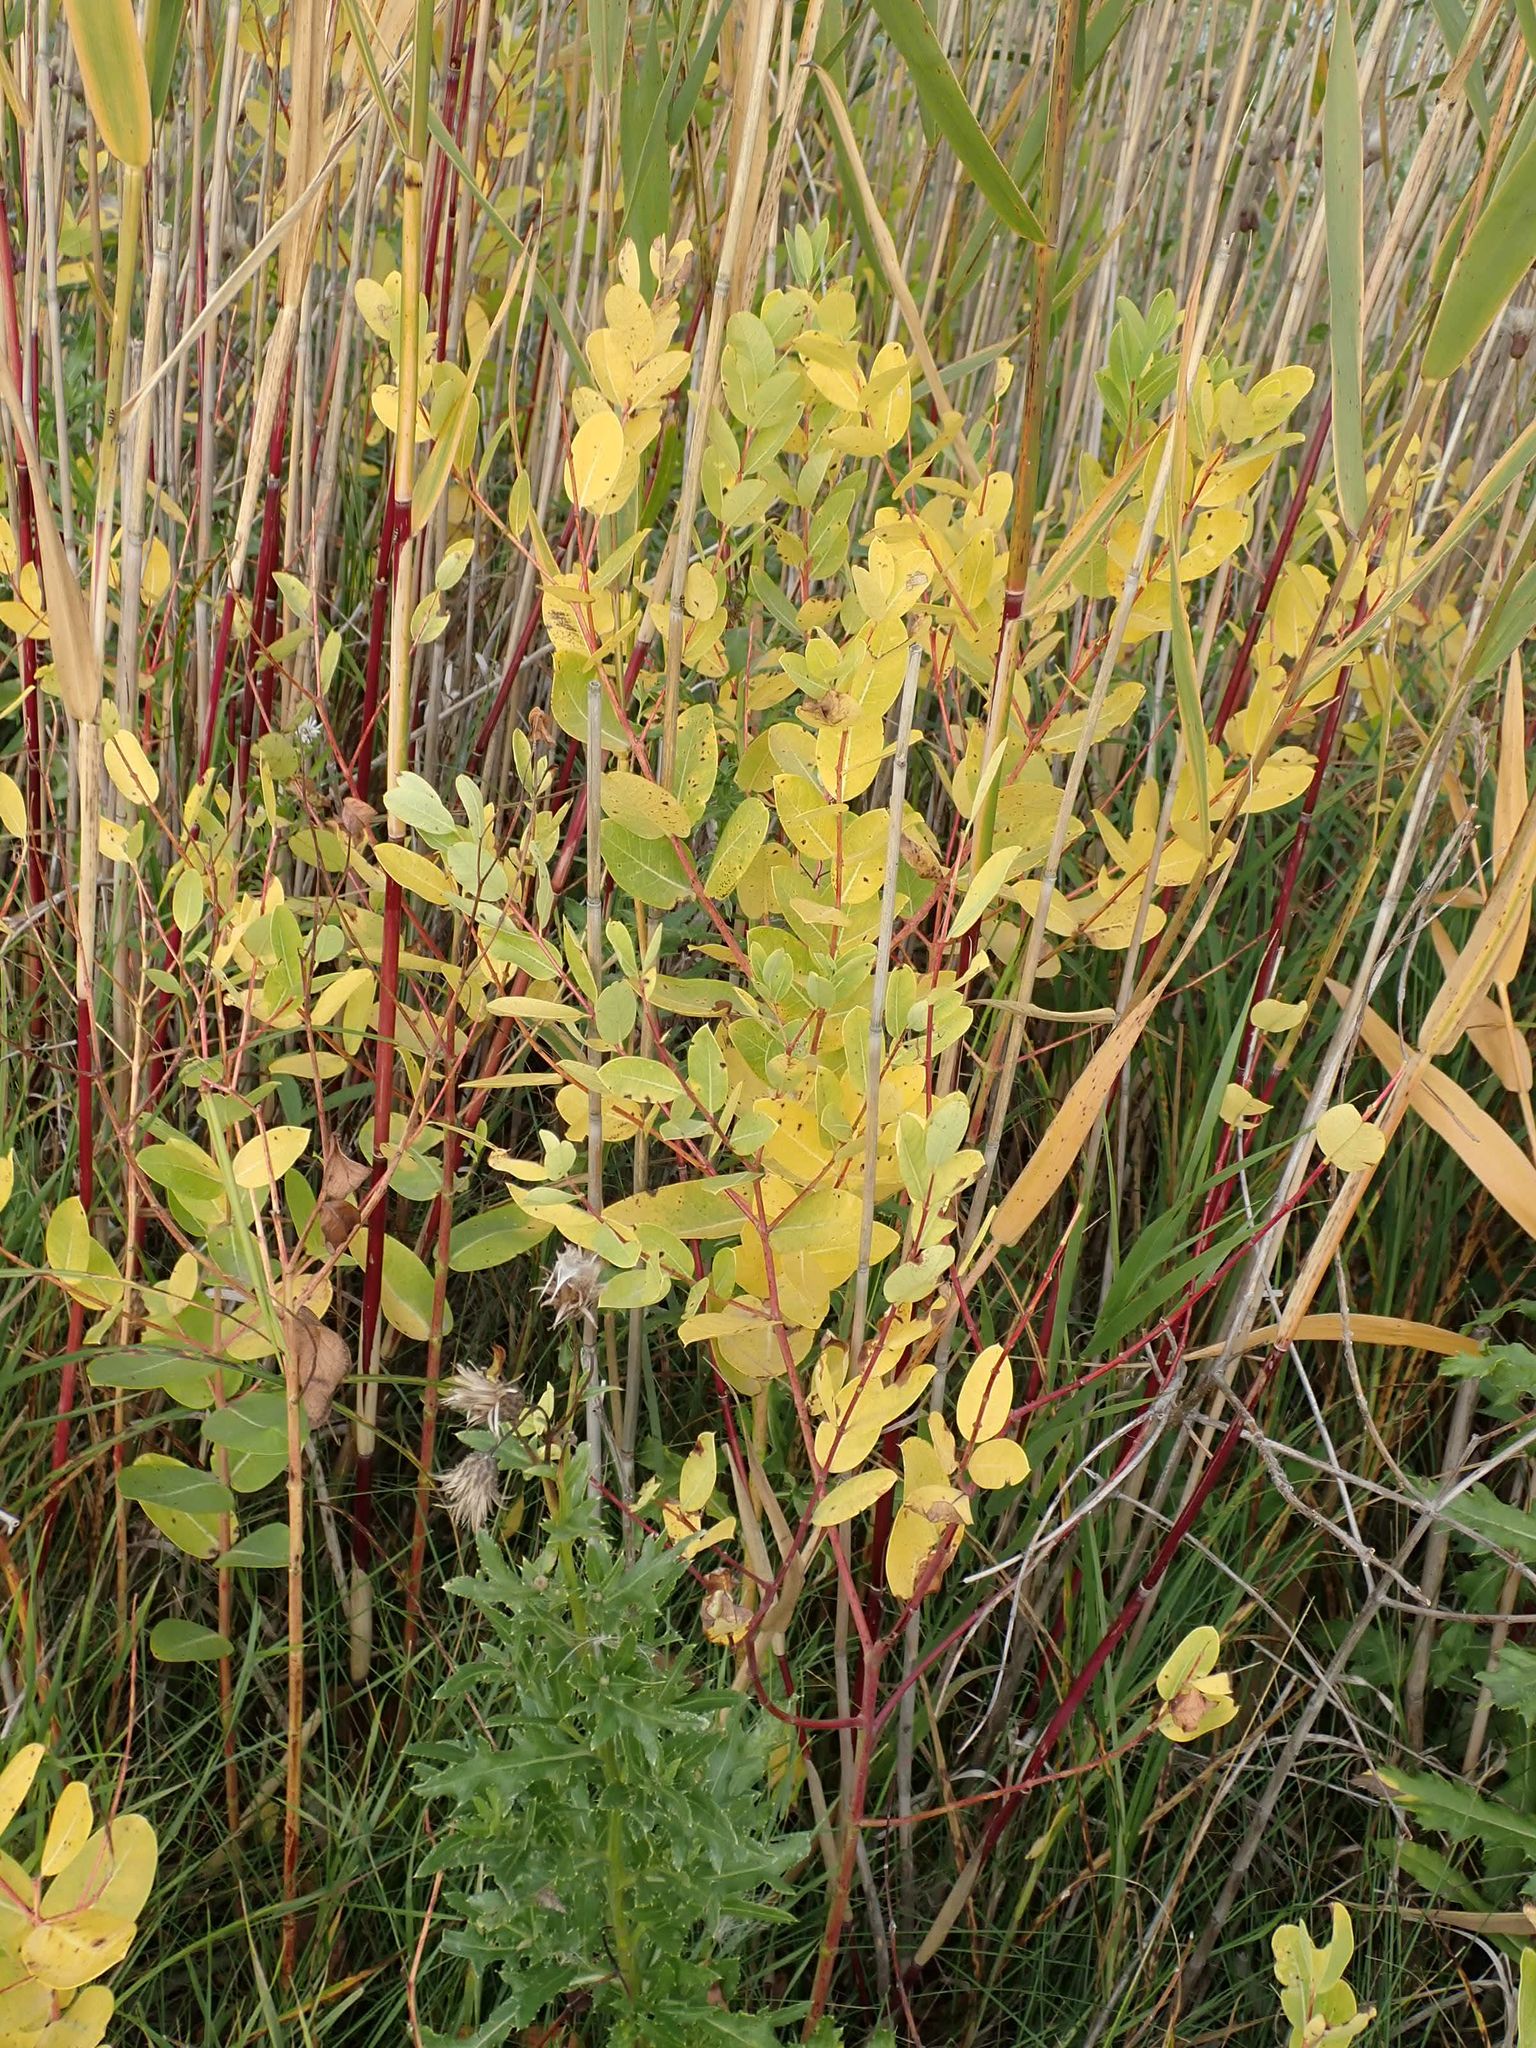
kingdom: Plantae
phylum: Tracheophyta
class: Magnoliopsida
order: Gentianales
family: Apocynaceae
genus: Apocynum
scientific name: Apocynum cannabinum
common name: Hemp dogbane
